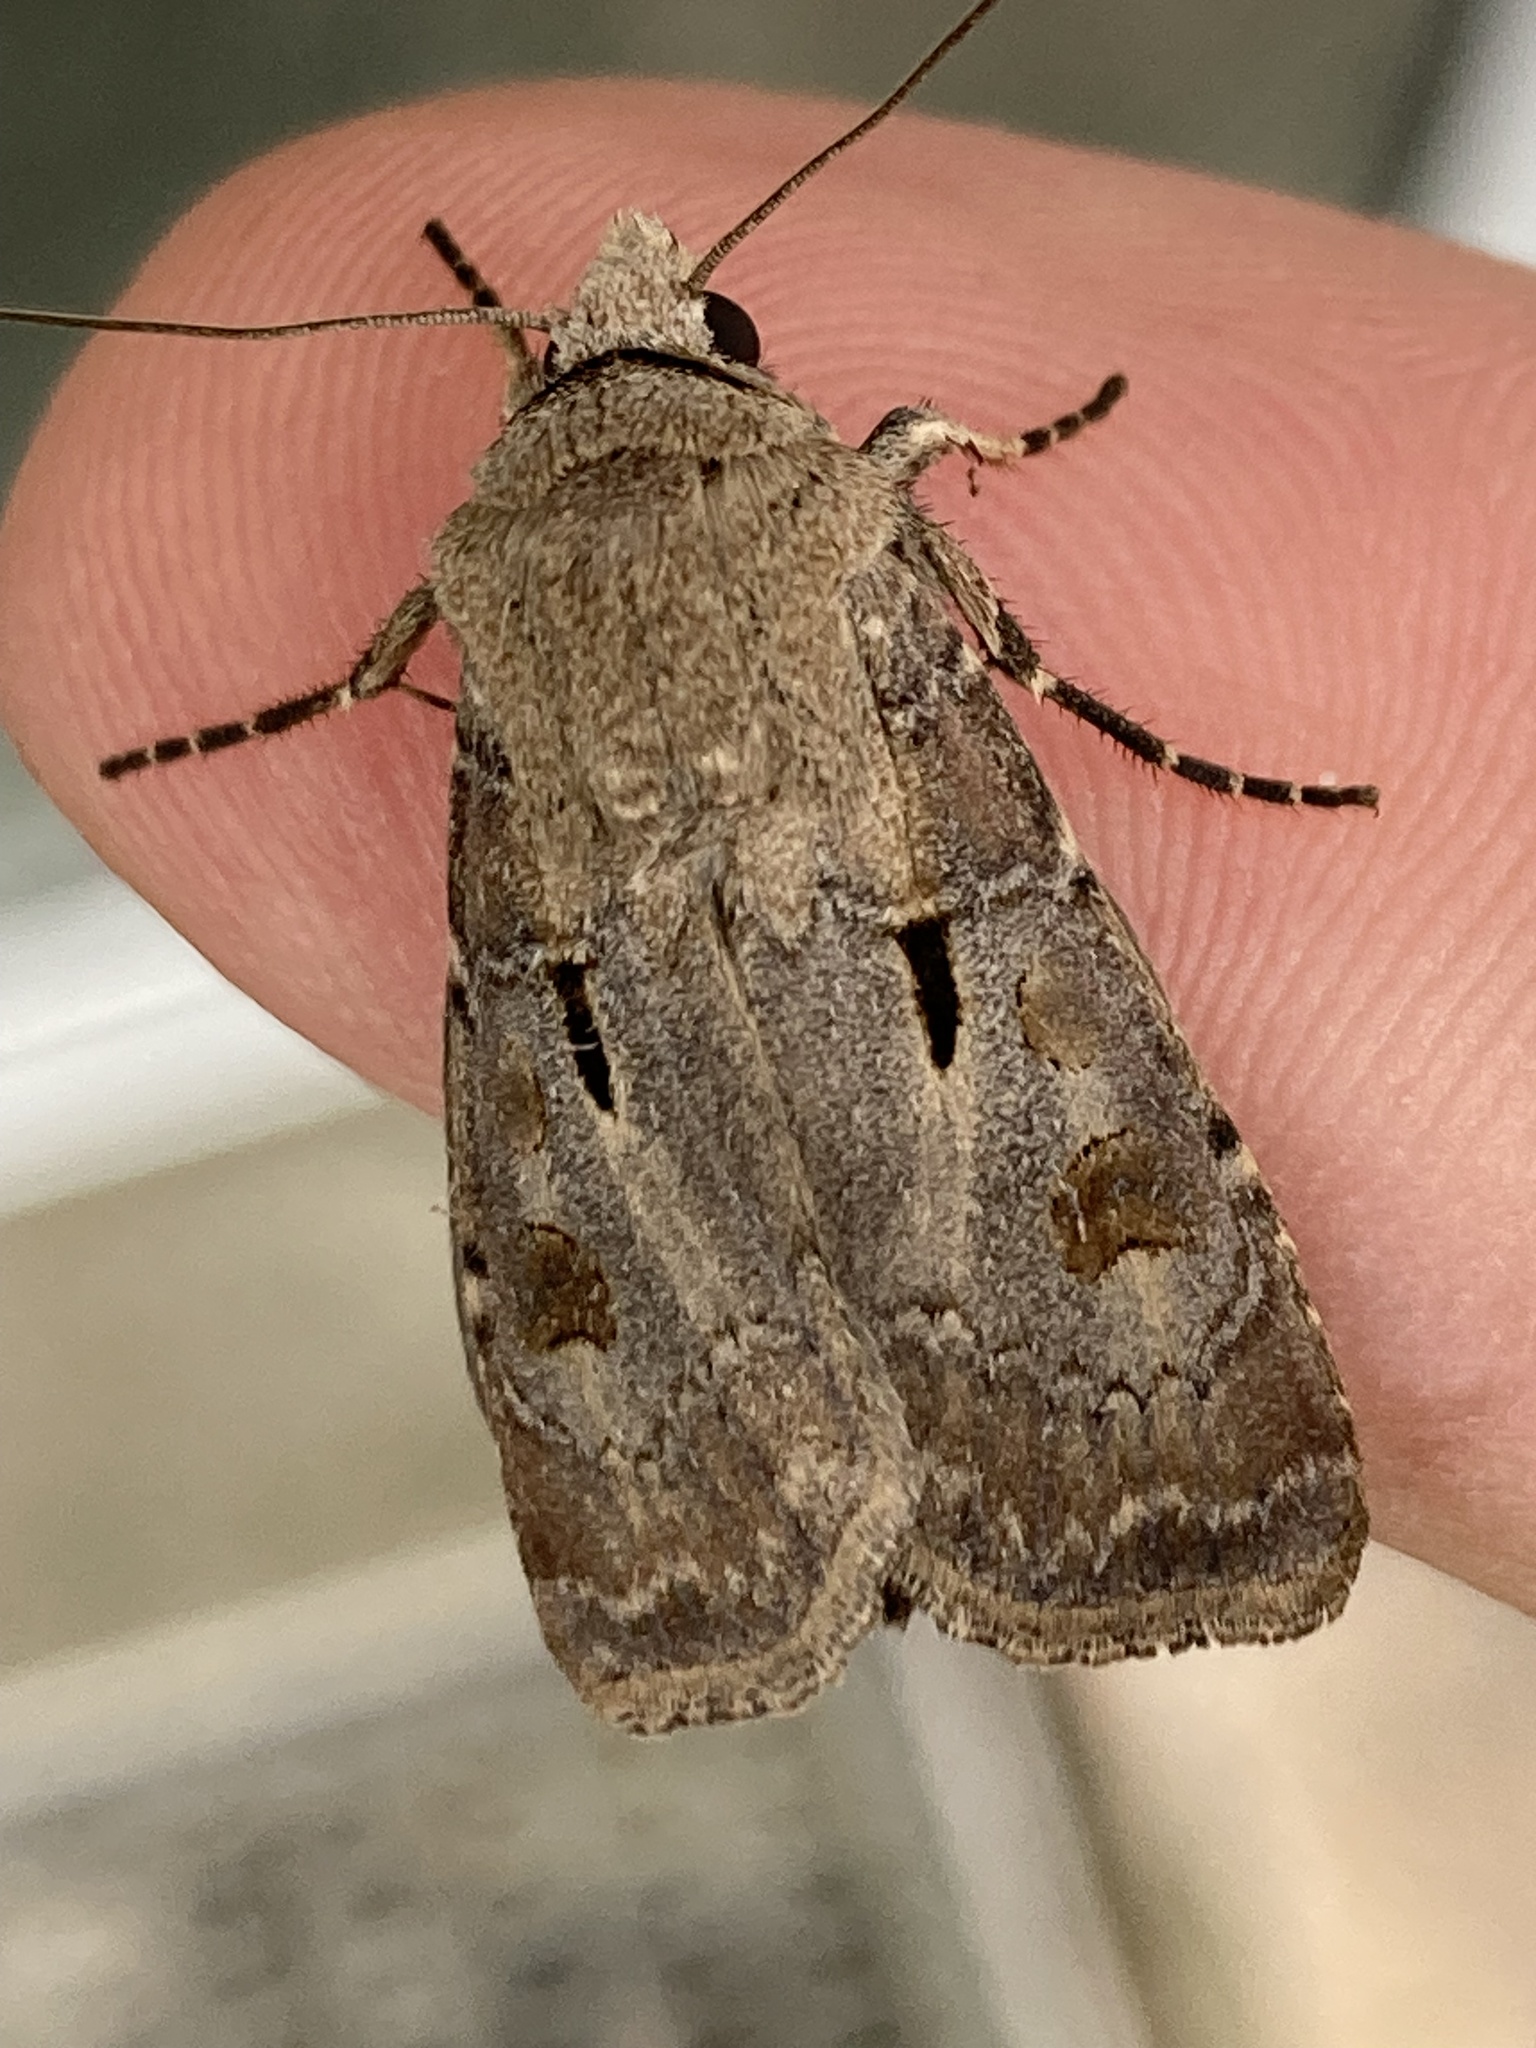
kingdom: Animalia
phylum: Arthropoda
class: Insecta
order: Lepidoptera
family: Noctuidae
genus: Agrotis
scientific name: Agrotis exclamationis
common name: Heart and dart
